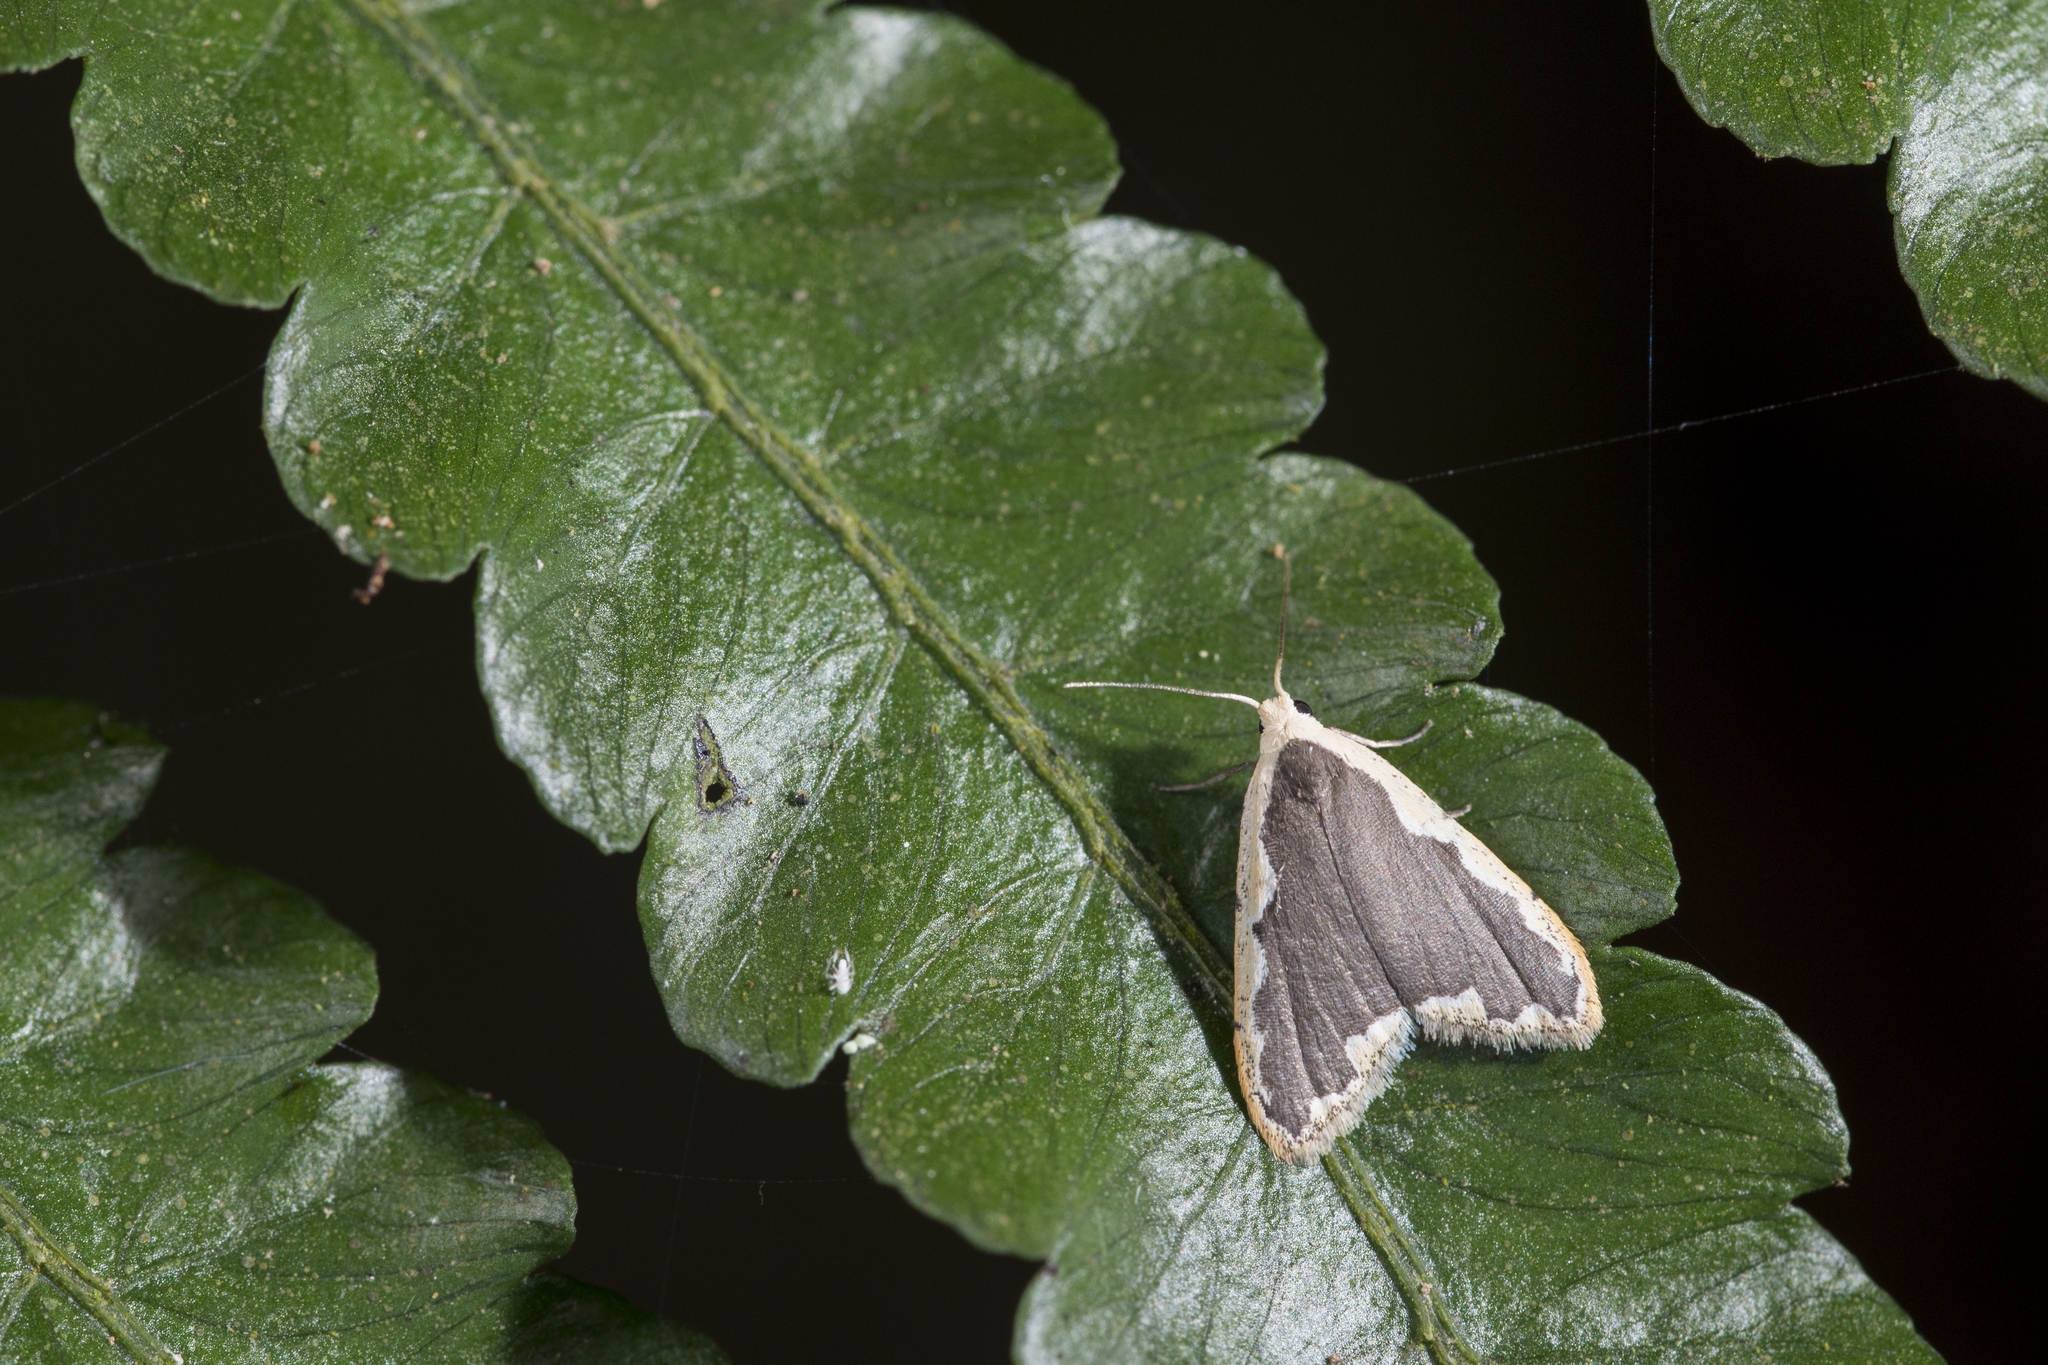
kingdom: Animalia
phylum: Arthropoda
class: Insecta
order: Lepidoptera
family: Erebidae
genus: Diduga
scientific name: Diduga taiwana
